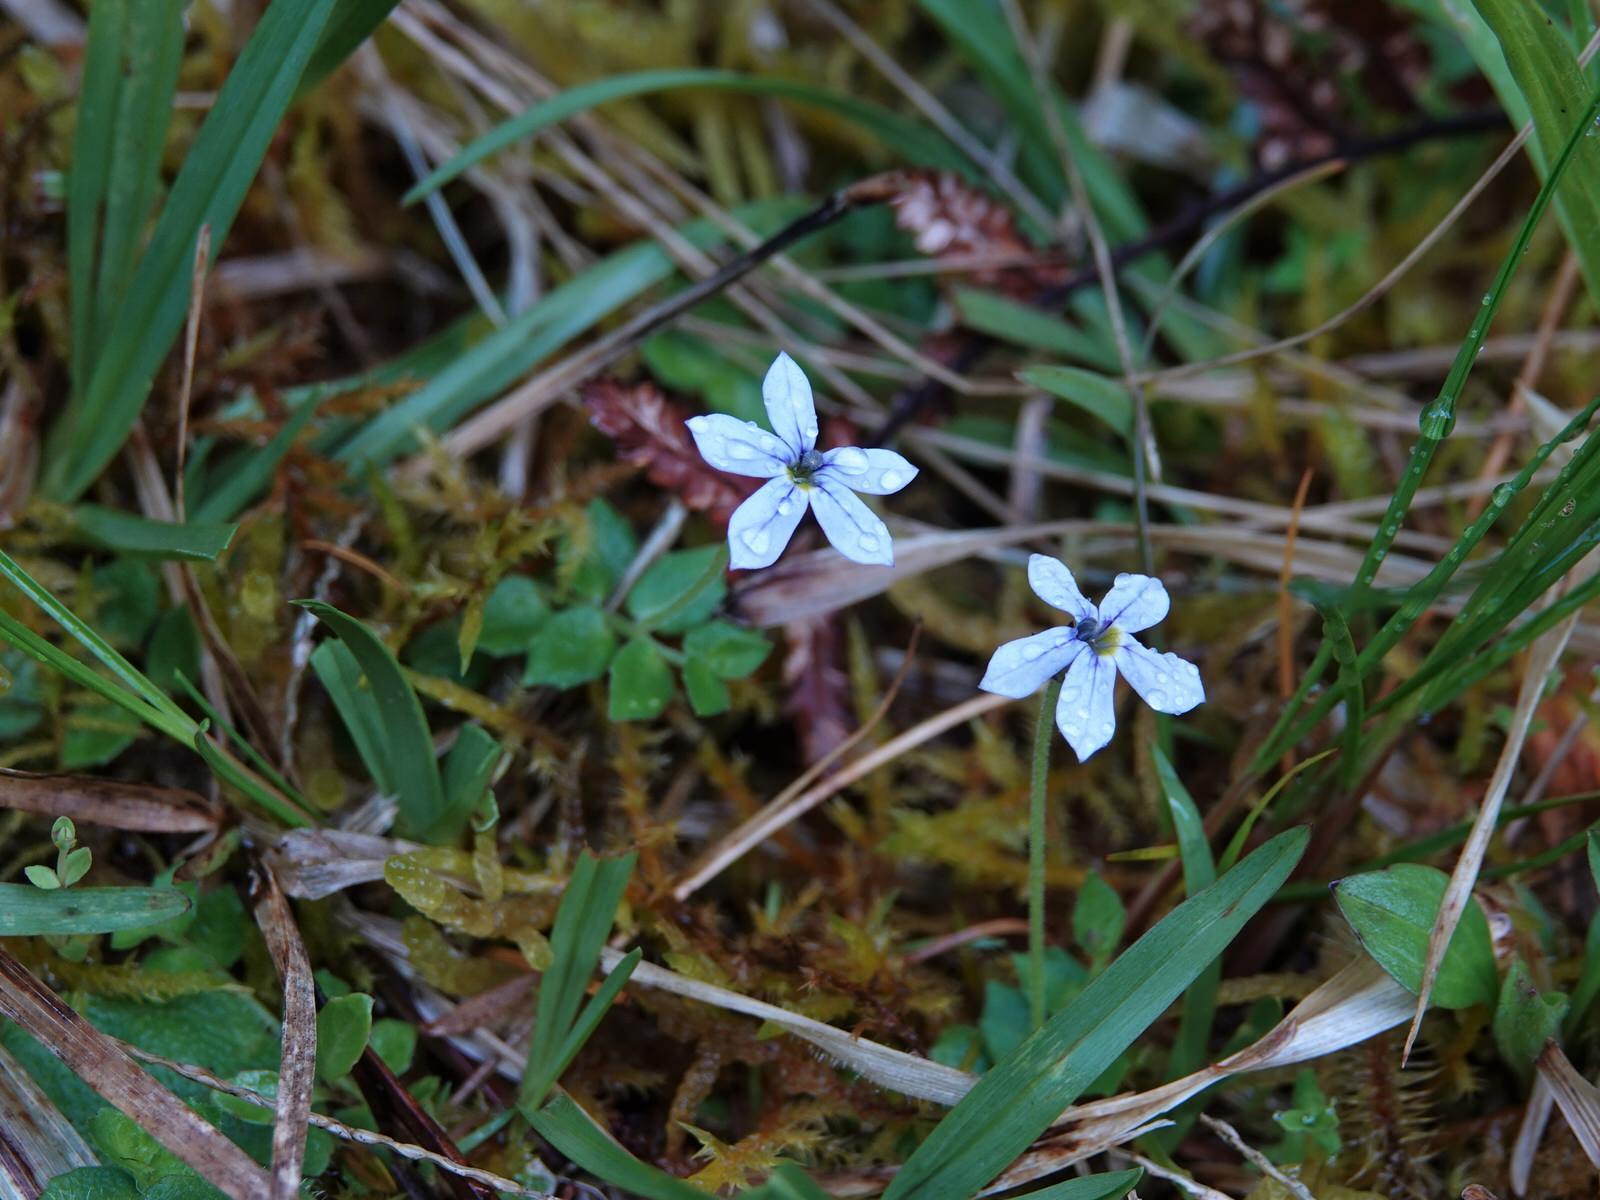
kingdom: Plantae
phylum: Tracheophyta
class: Magnoliopsida
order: Asterales
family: Campanulaceae
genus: Lobelia
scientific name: Lobelia pedunculata
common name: Matted pratia
